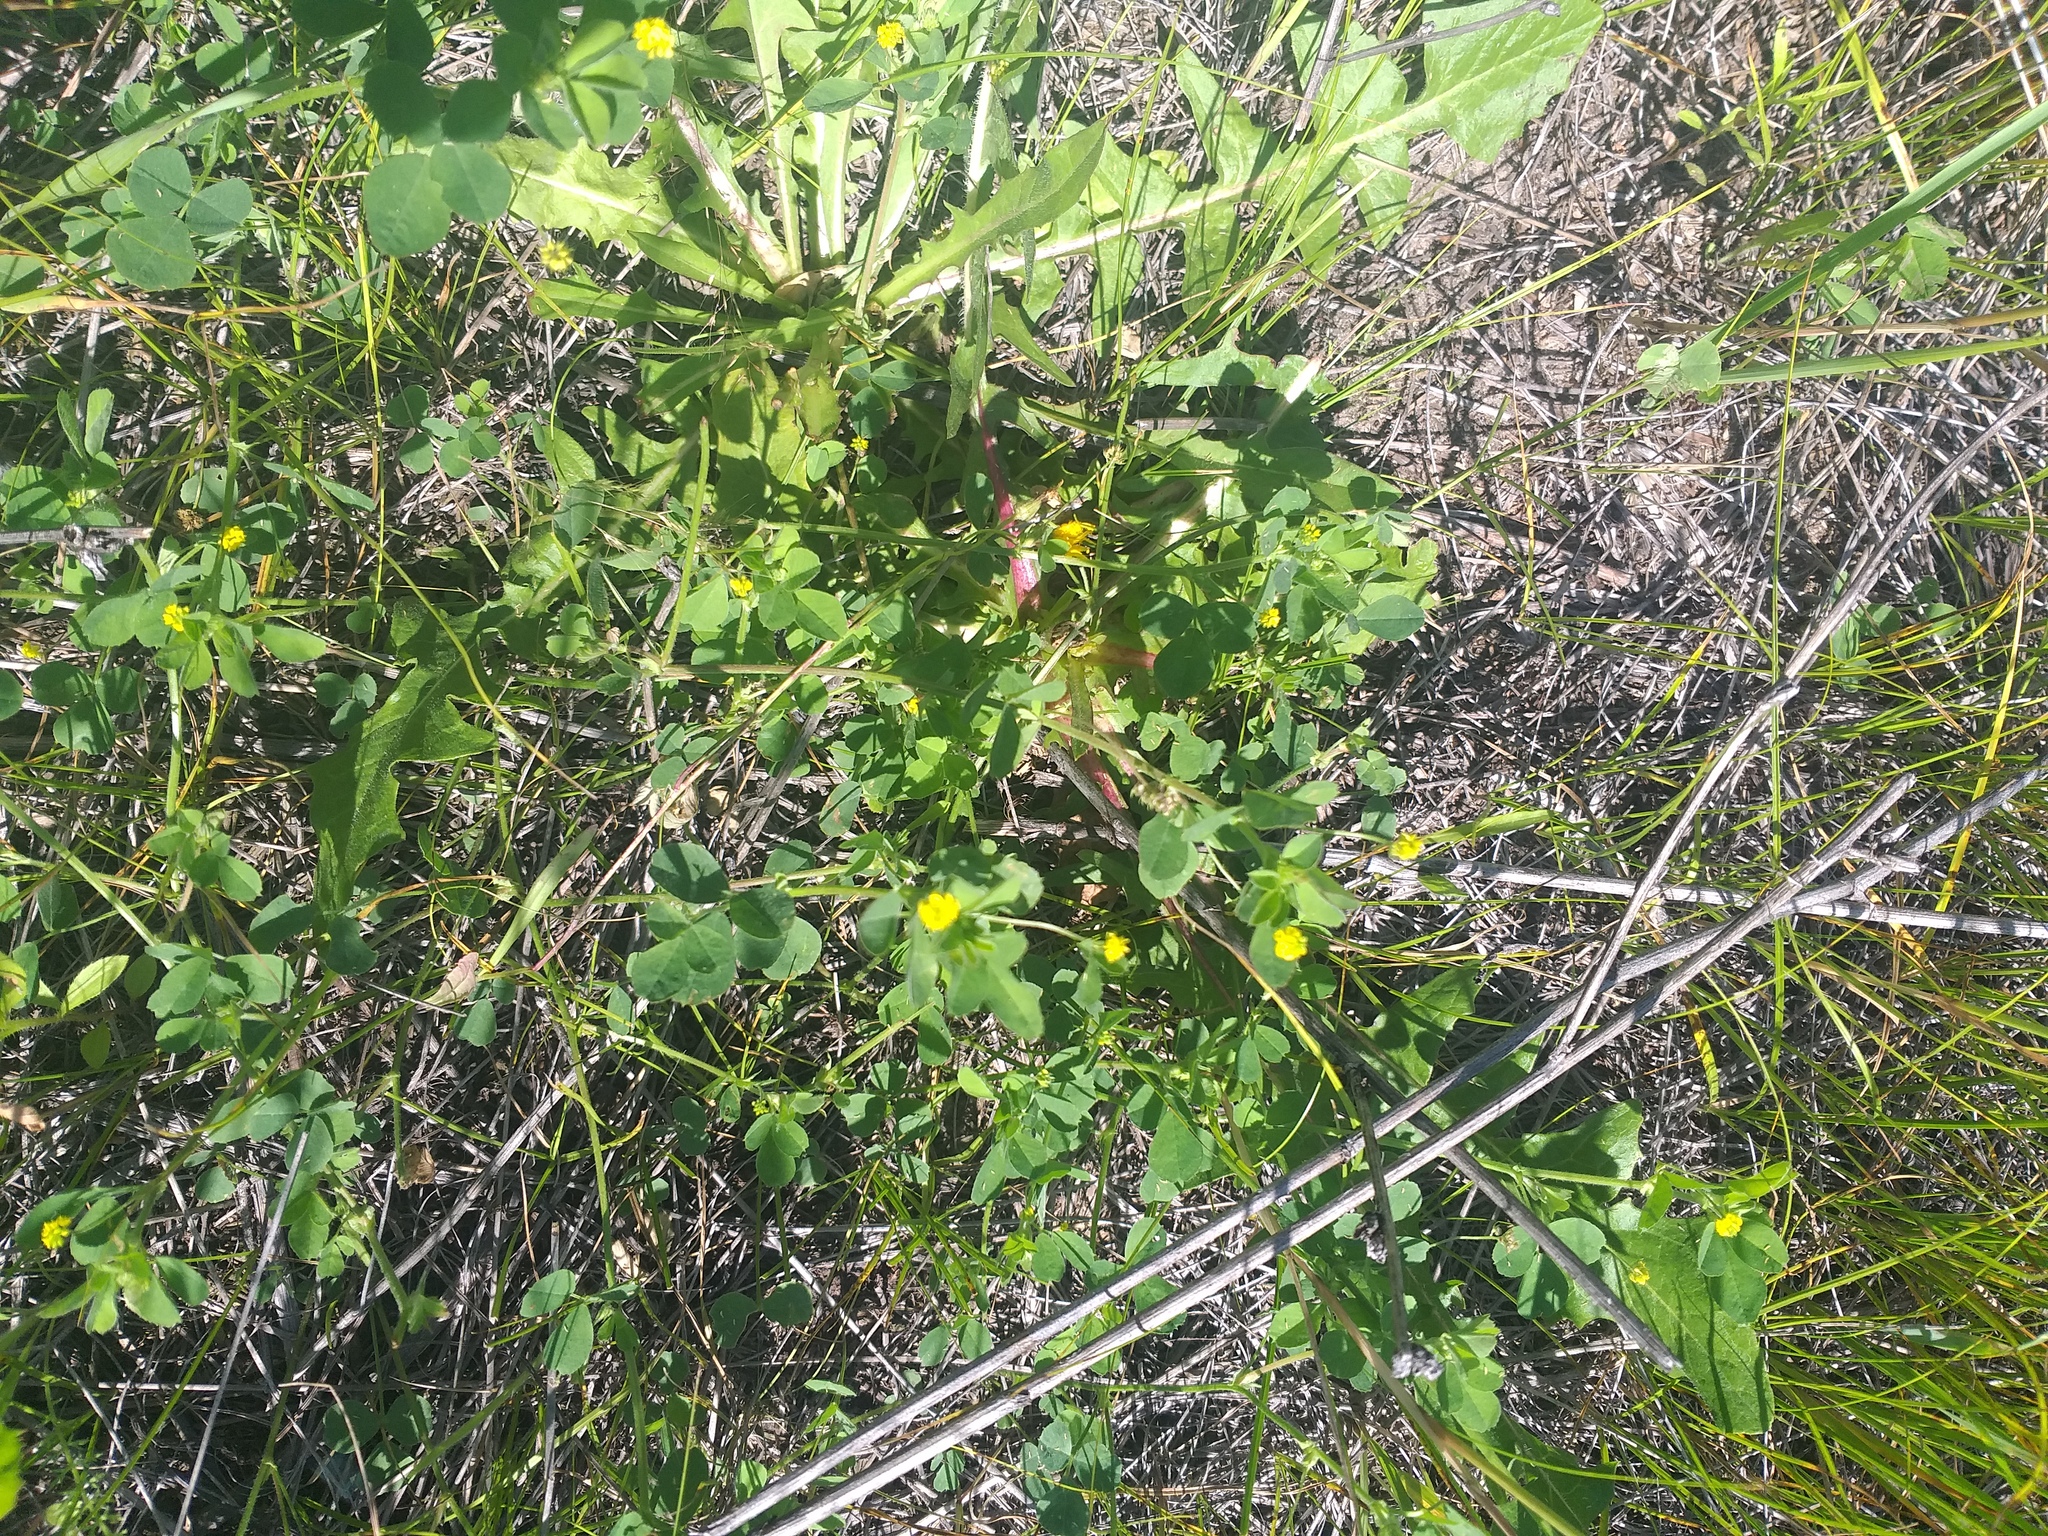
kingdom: Plantae
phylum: Tracheophyta
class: Magnoliopsida
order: Fabales
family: Fabaceae
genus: Medicago
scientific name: Medicago lupulina
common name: Black medick
